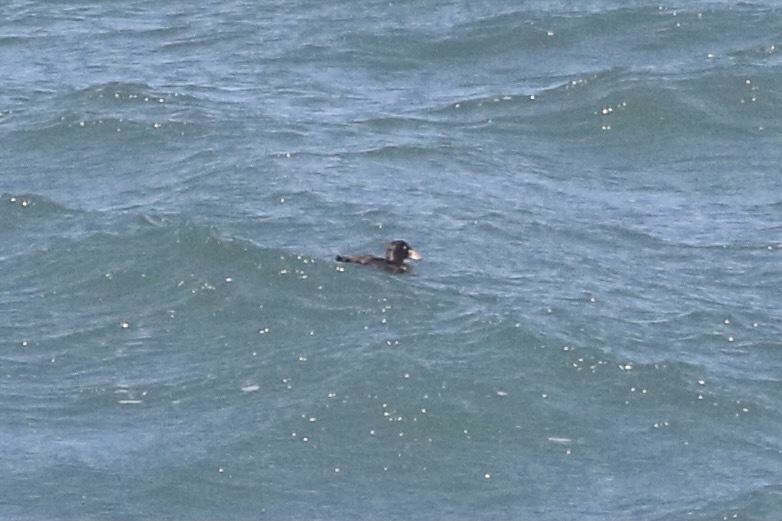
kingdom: Animalia
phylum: Chordata
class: Aves
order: Anseriformes
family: Anatidae
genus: Melanitta
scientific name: Melanitta perspicillata
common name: Surf scoter
